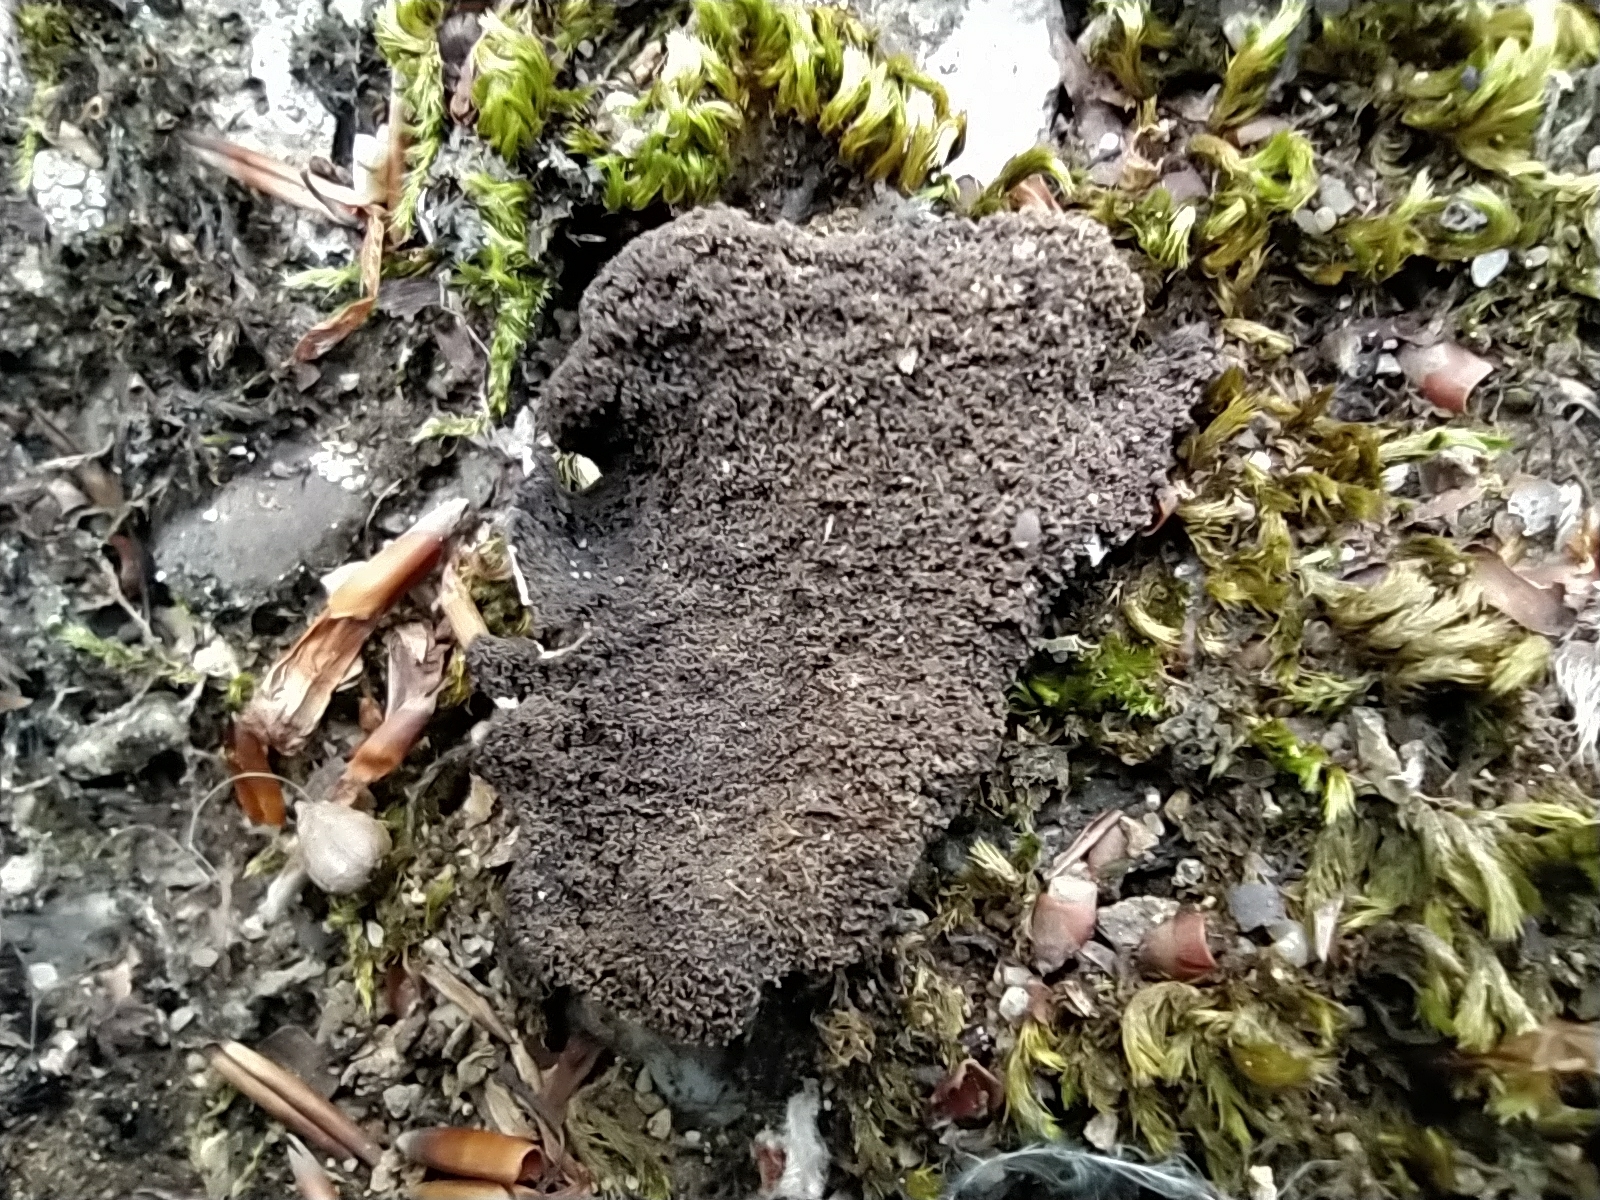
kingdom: Fungi
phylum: Ascomycota
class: Lecanoromycetes
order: Umbilicariales
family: Umbilicariaceae
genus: Umbilicaria
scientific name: Umbilicaria hirsuta
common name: Granulating rocktripe lichen
